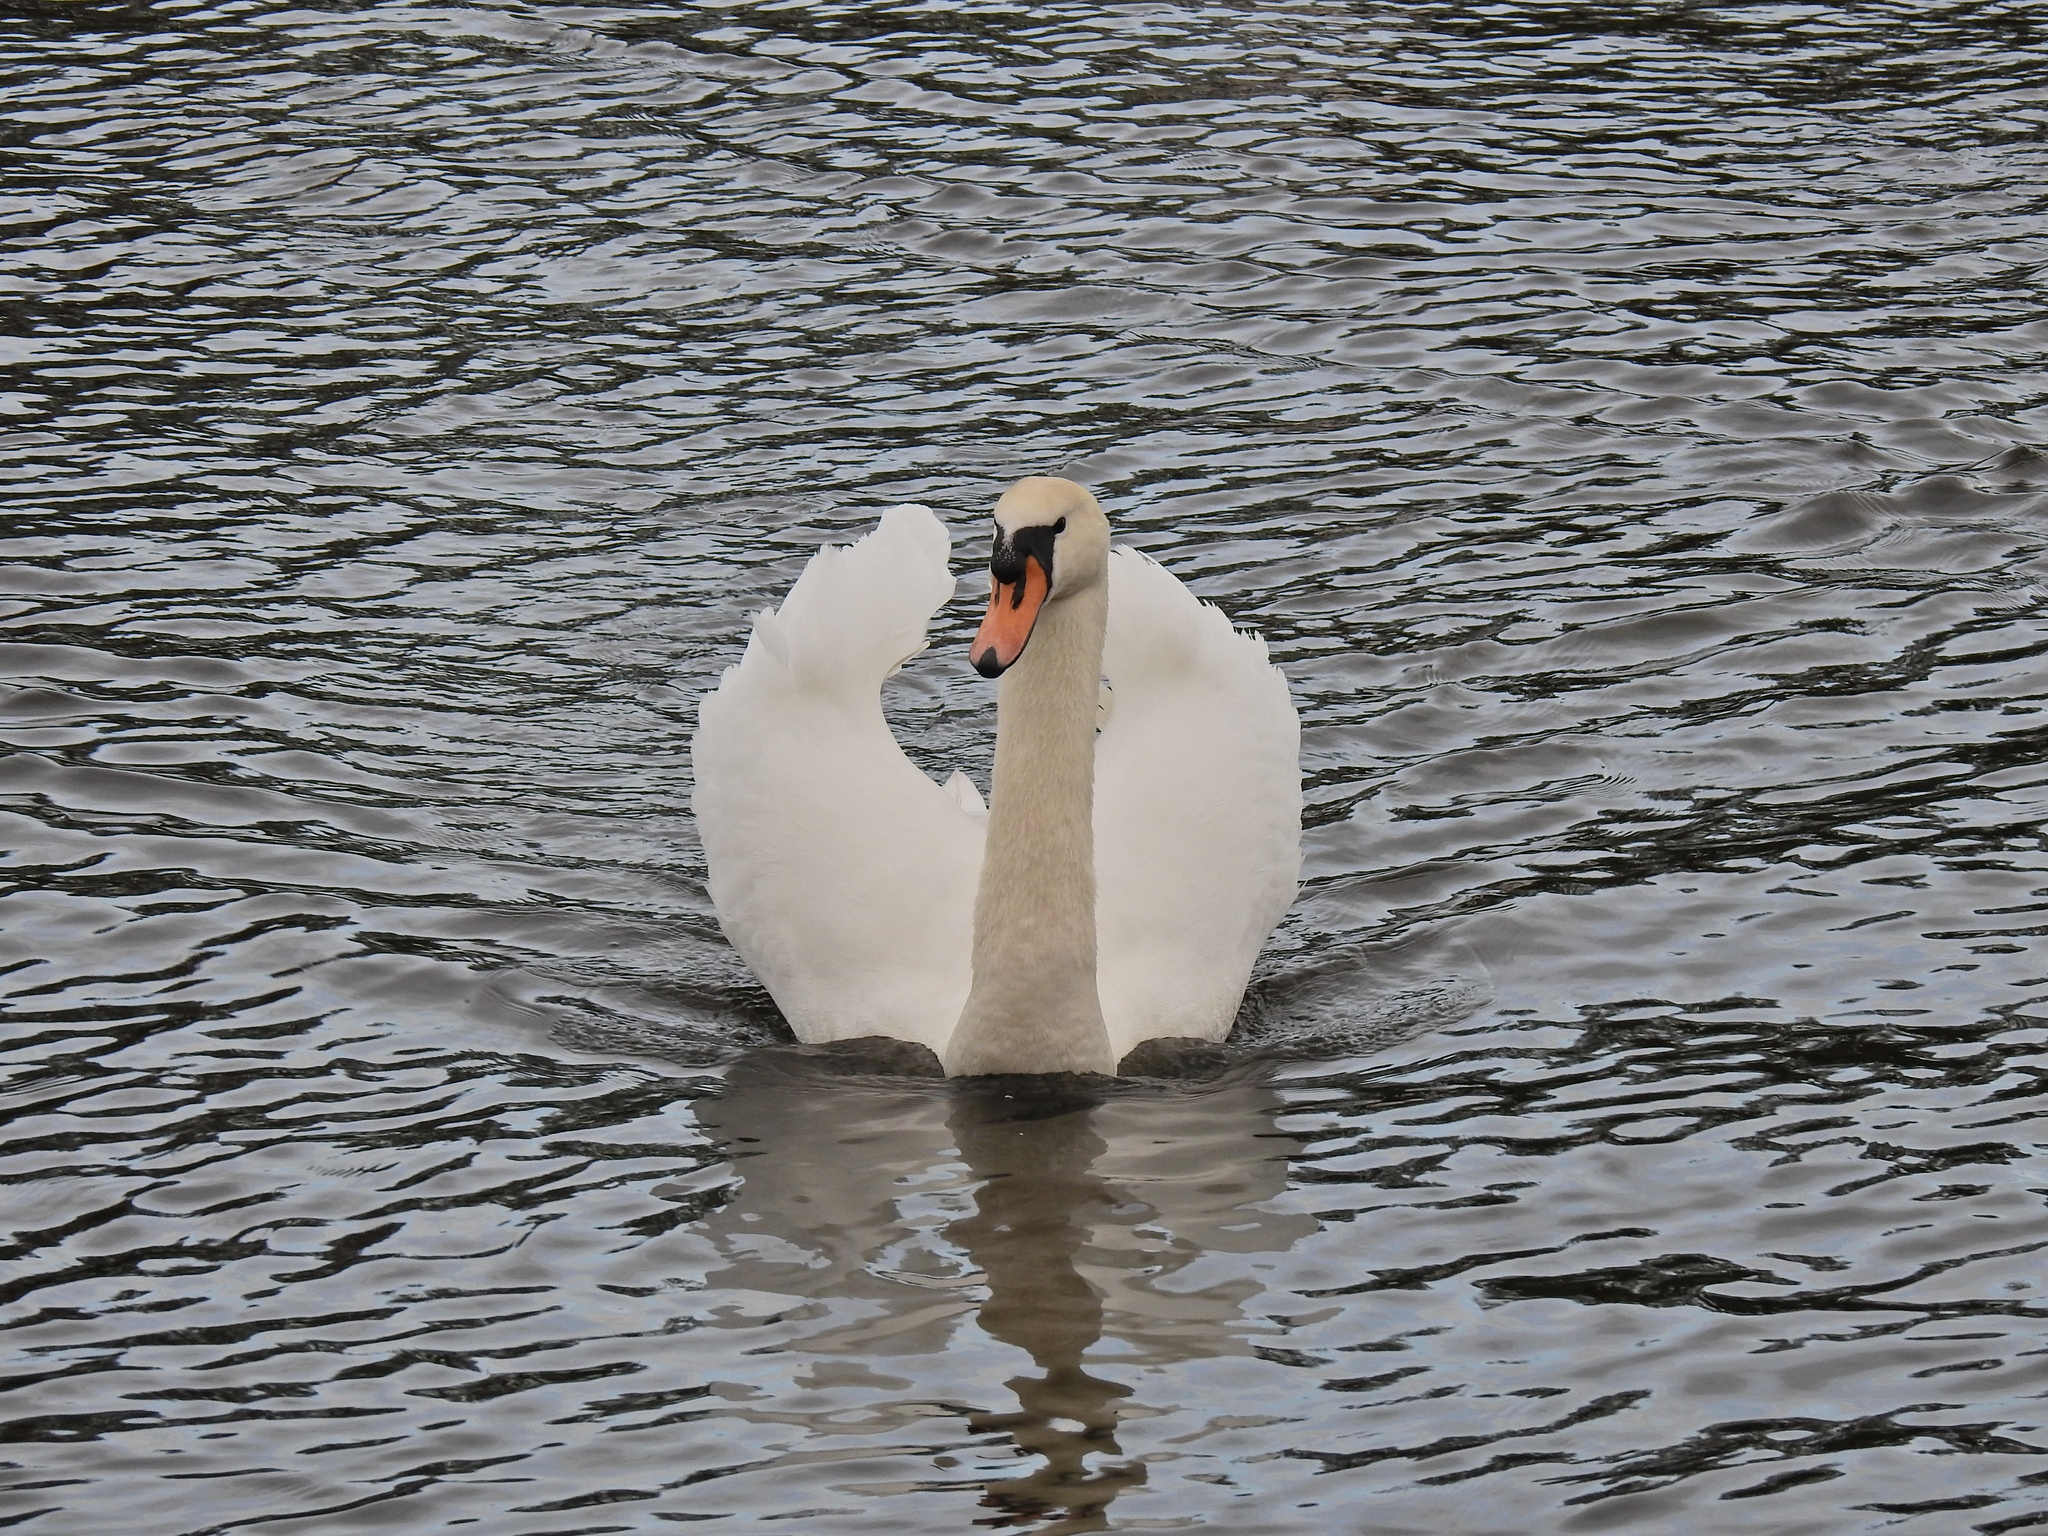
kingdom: Animalia
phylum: Chordata
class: Aves
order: Anseriformes
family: Anatidae
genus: Cygnus
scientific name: Cygnus olor
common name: Mute swan
